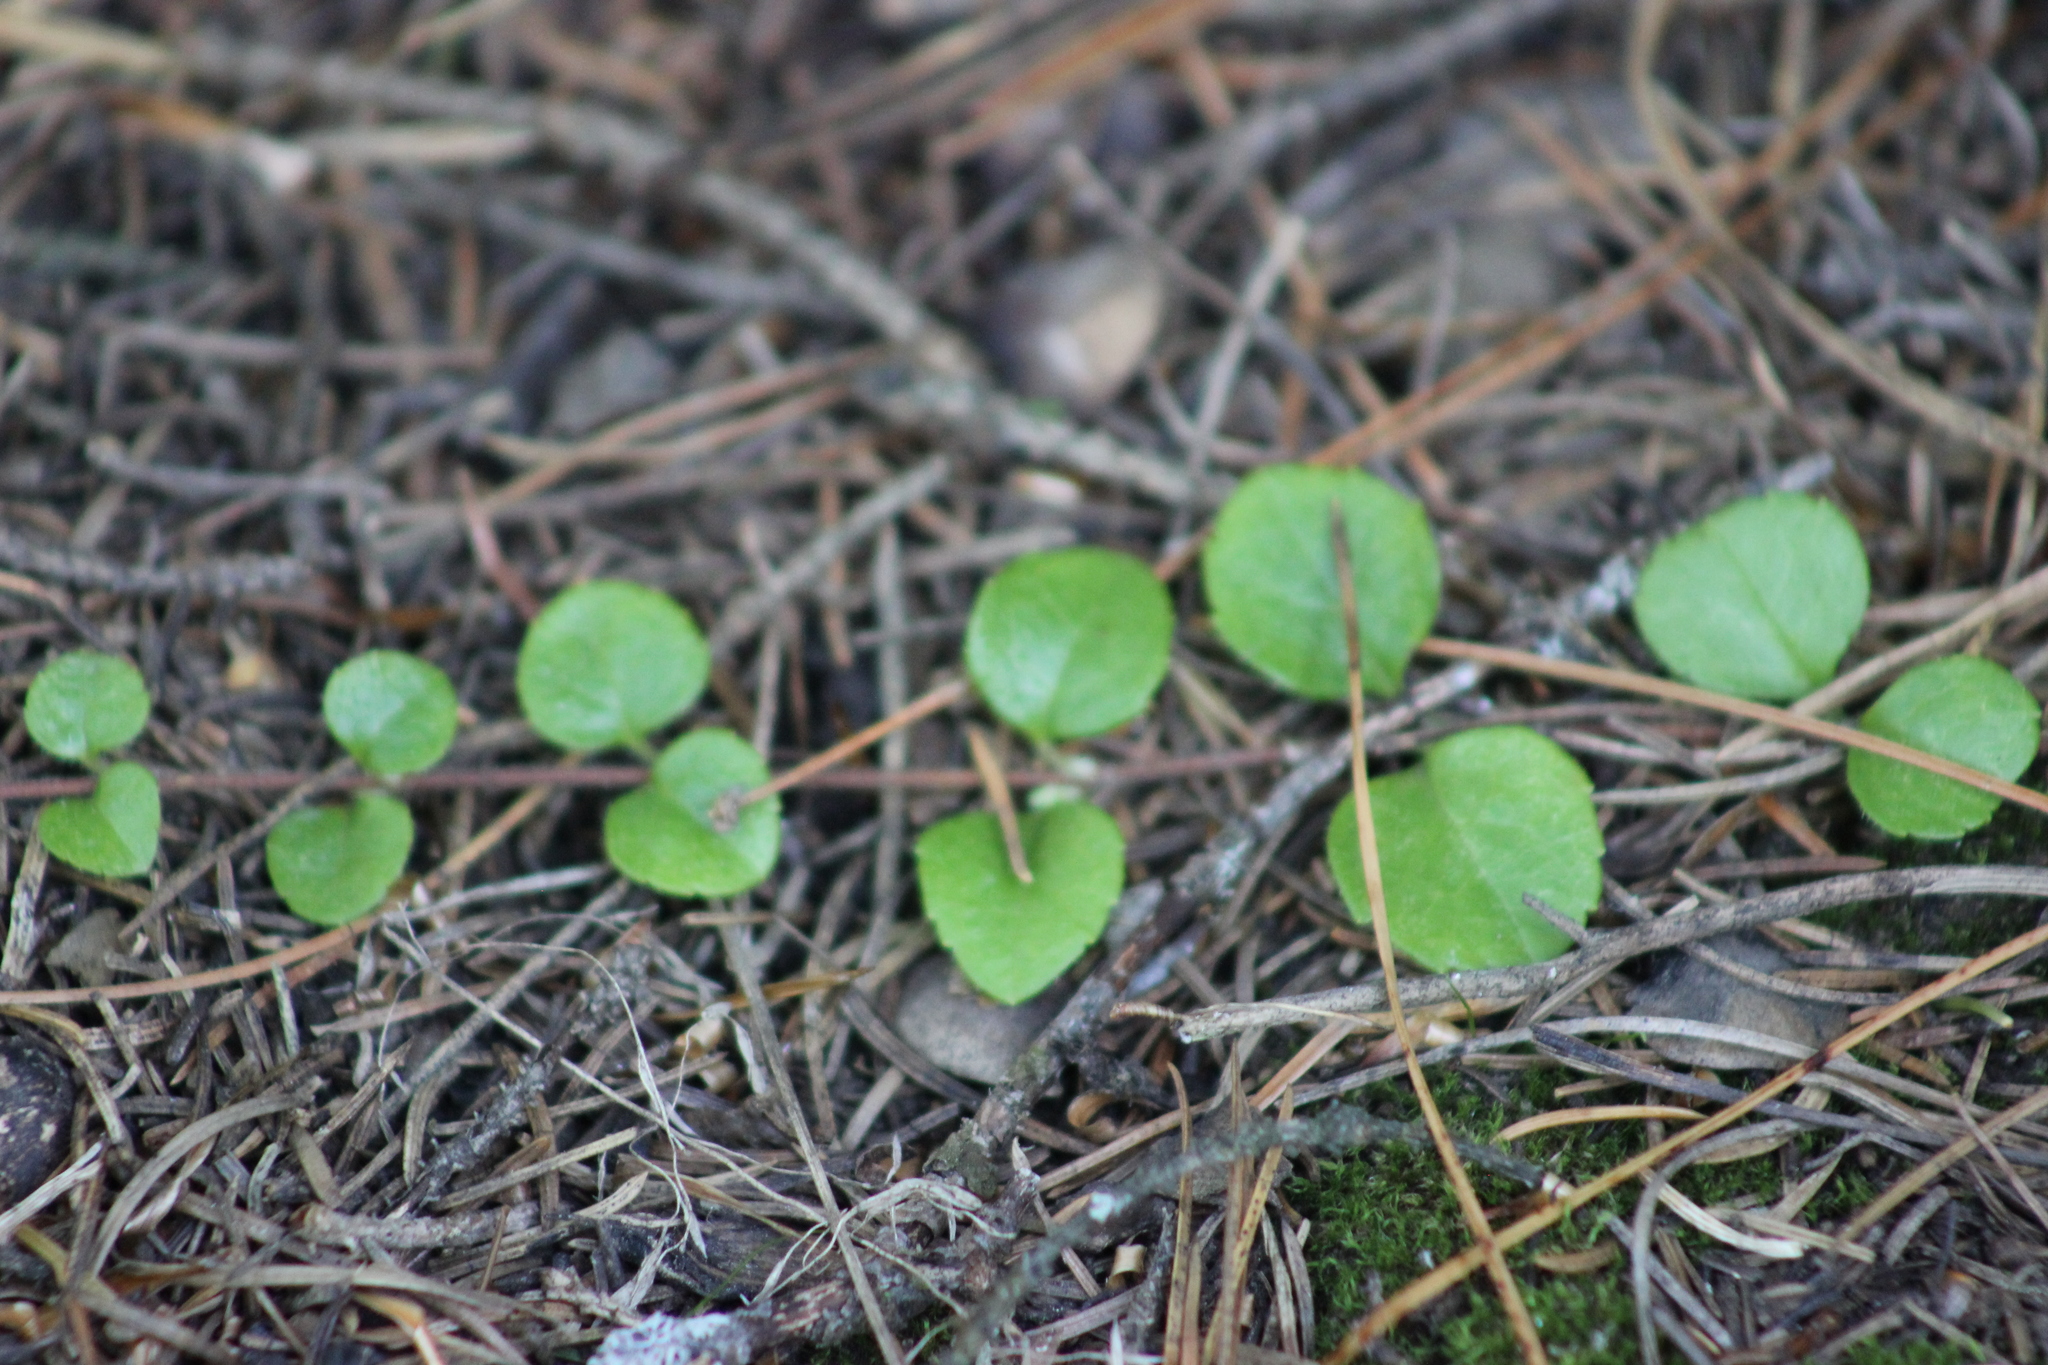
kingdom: Plantae
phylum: Tracheophyta
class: Magnoliopsida
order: Dipsacales
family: Caprifoliaceae
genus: Linnaea
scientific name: Linnaea borealis
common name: Twinflower
